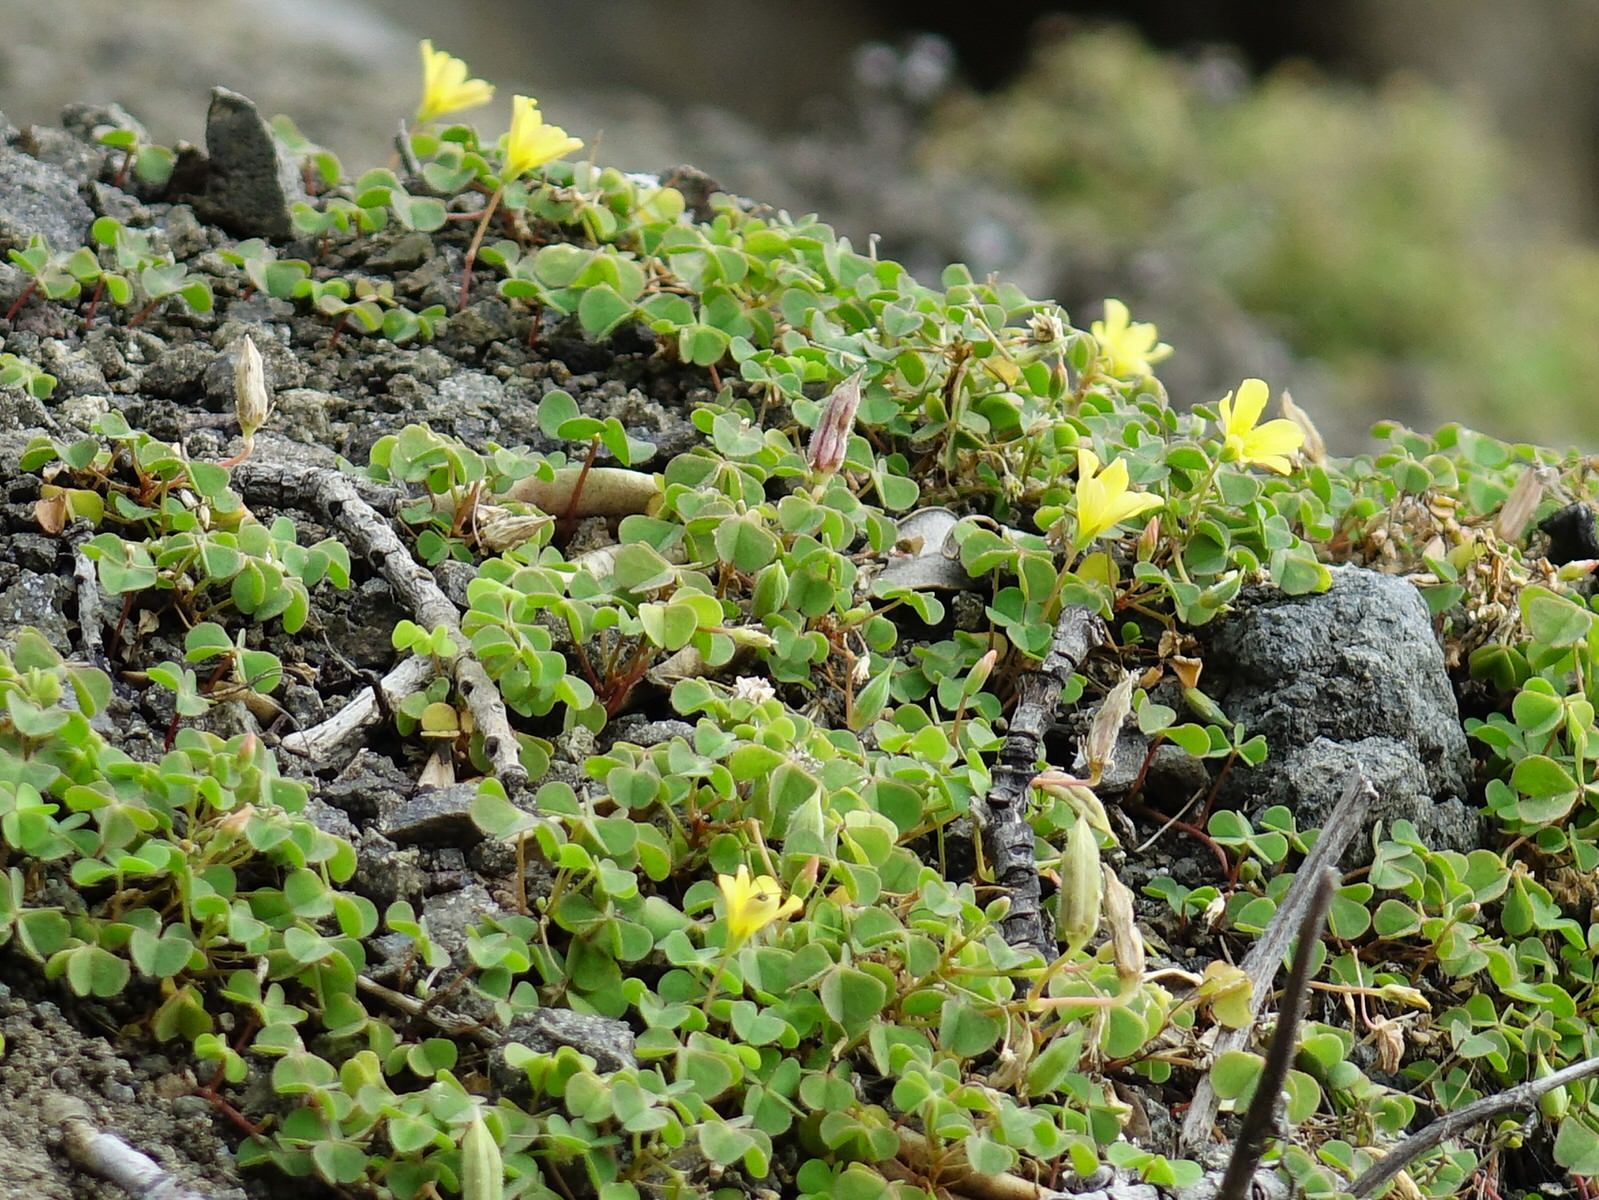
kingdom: Plantae
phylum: Tracheophyta
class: Magnoliopsida
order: Oxalidales
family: Oxalidaceae
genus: Oxalis
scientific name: Oxalis exilis
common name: Least yellow-sorrel
